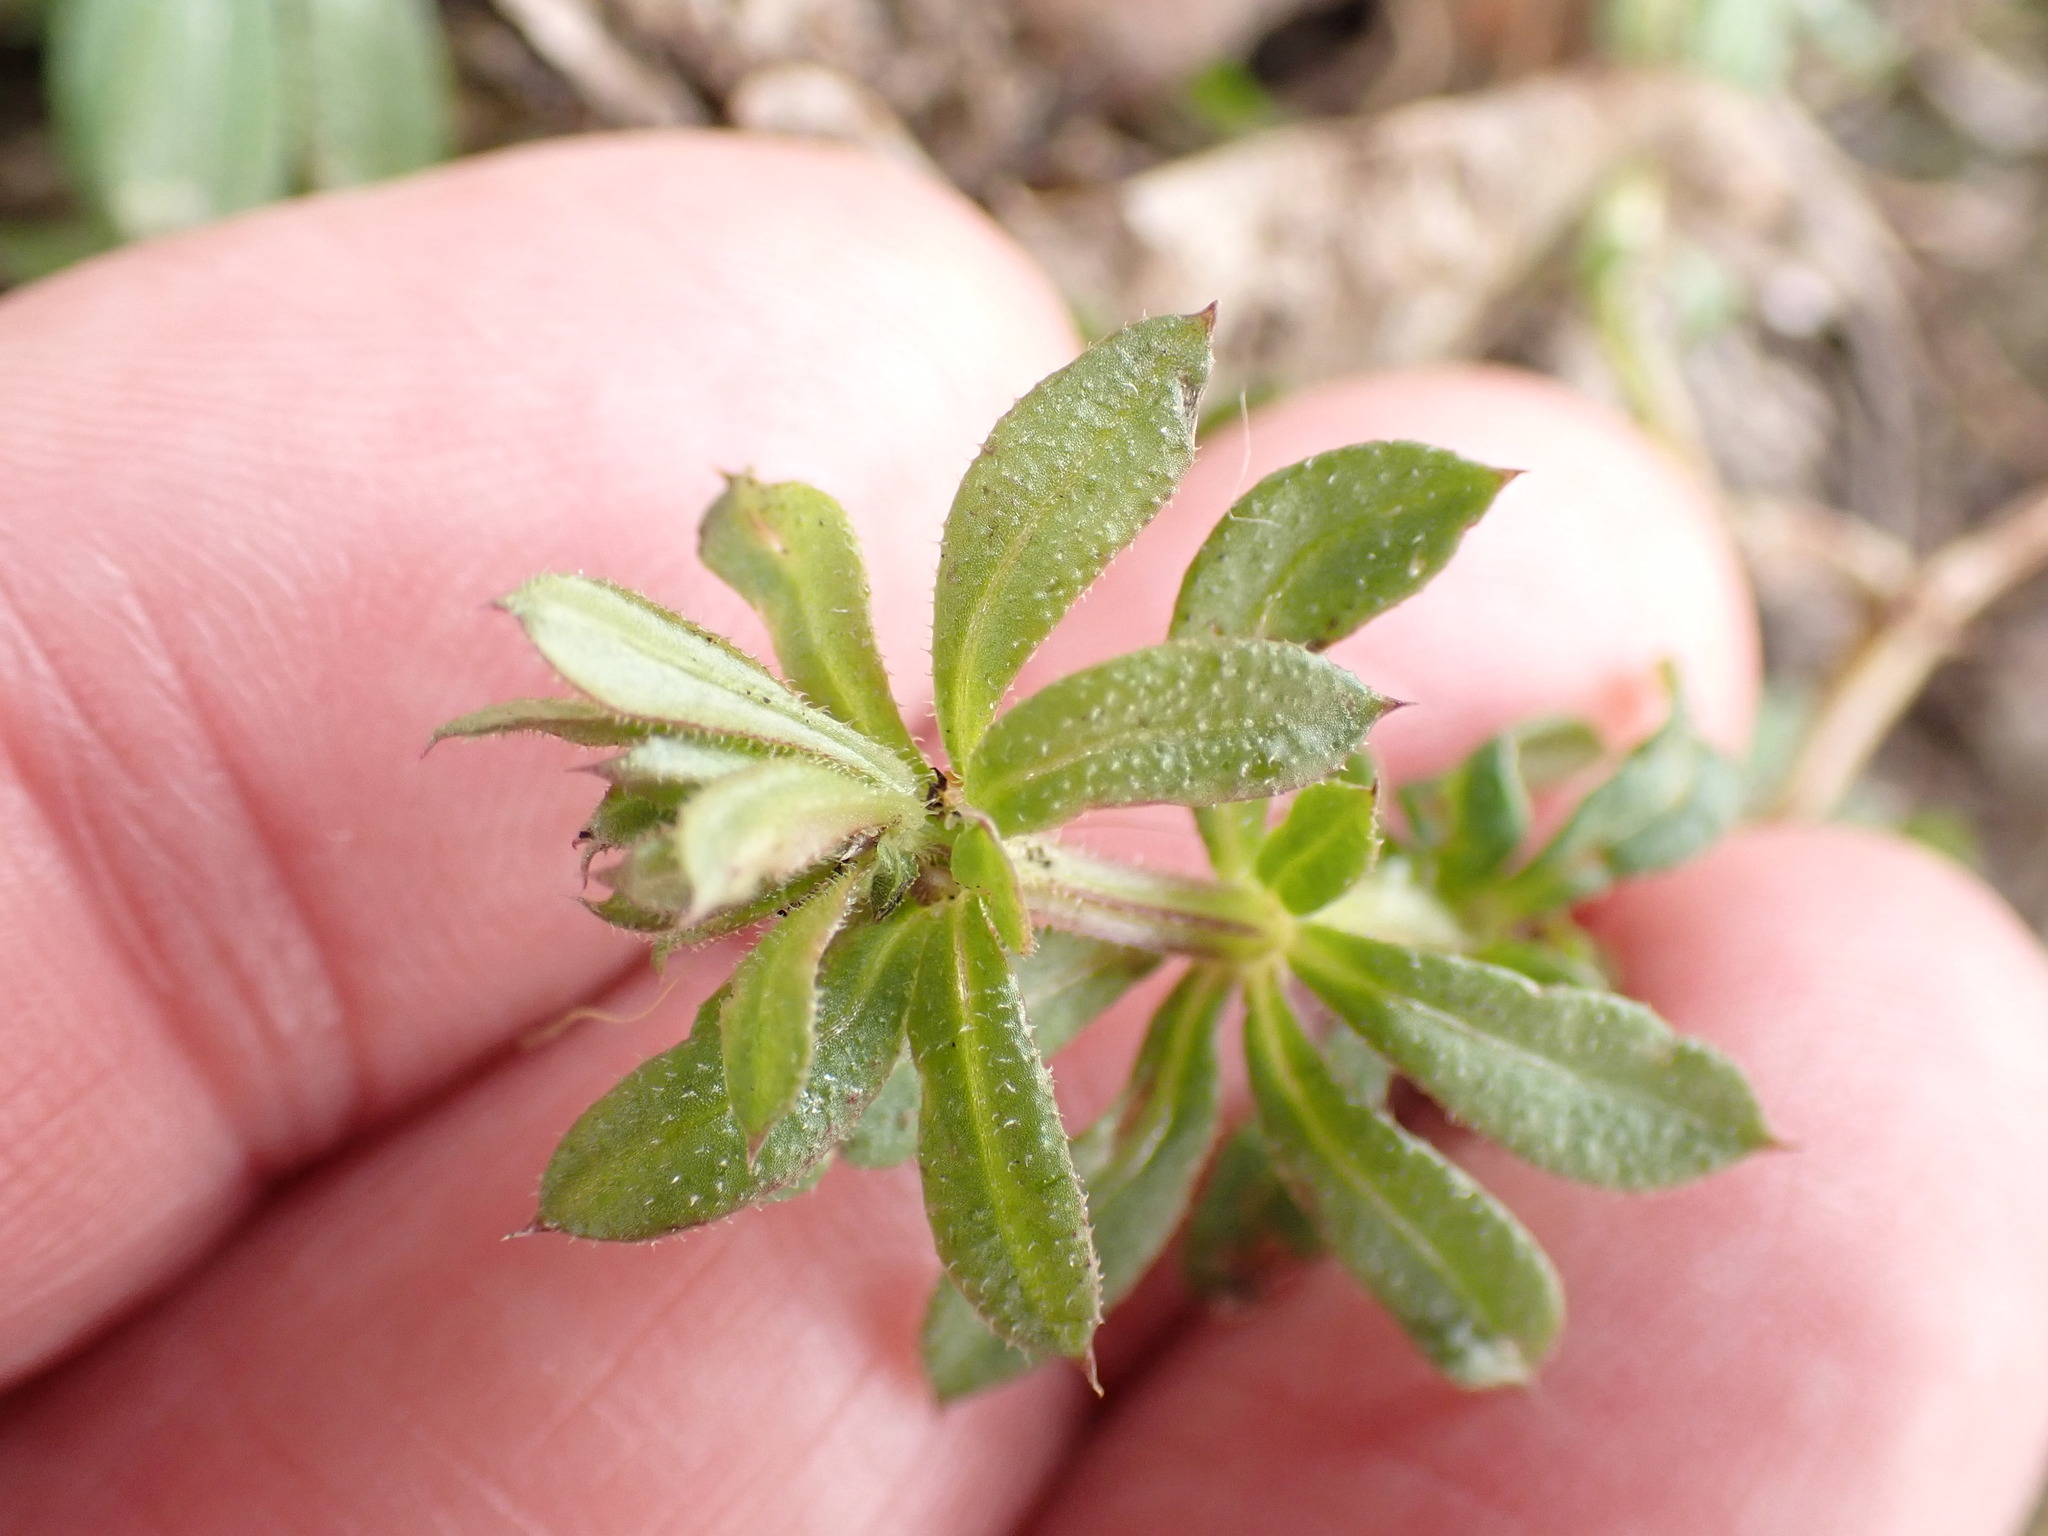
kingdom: Plantae
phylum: Tracheophyta
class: Magnoliopsida
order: Gentianales
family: Rubiaceae
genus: Galium
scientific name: Galium aparine
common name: Cleavers
